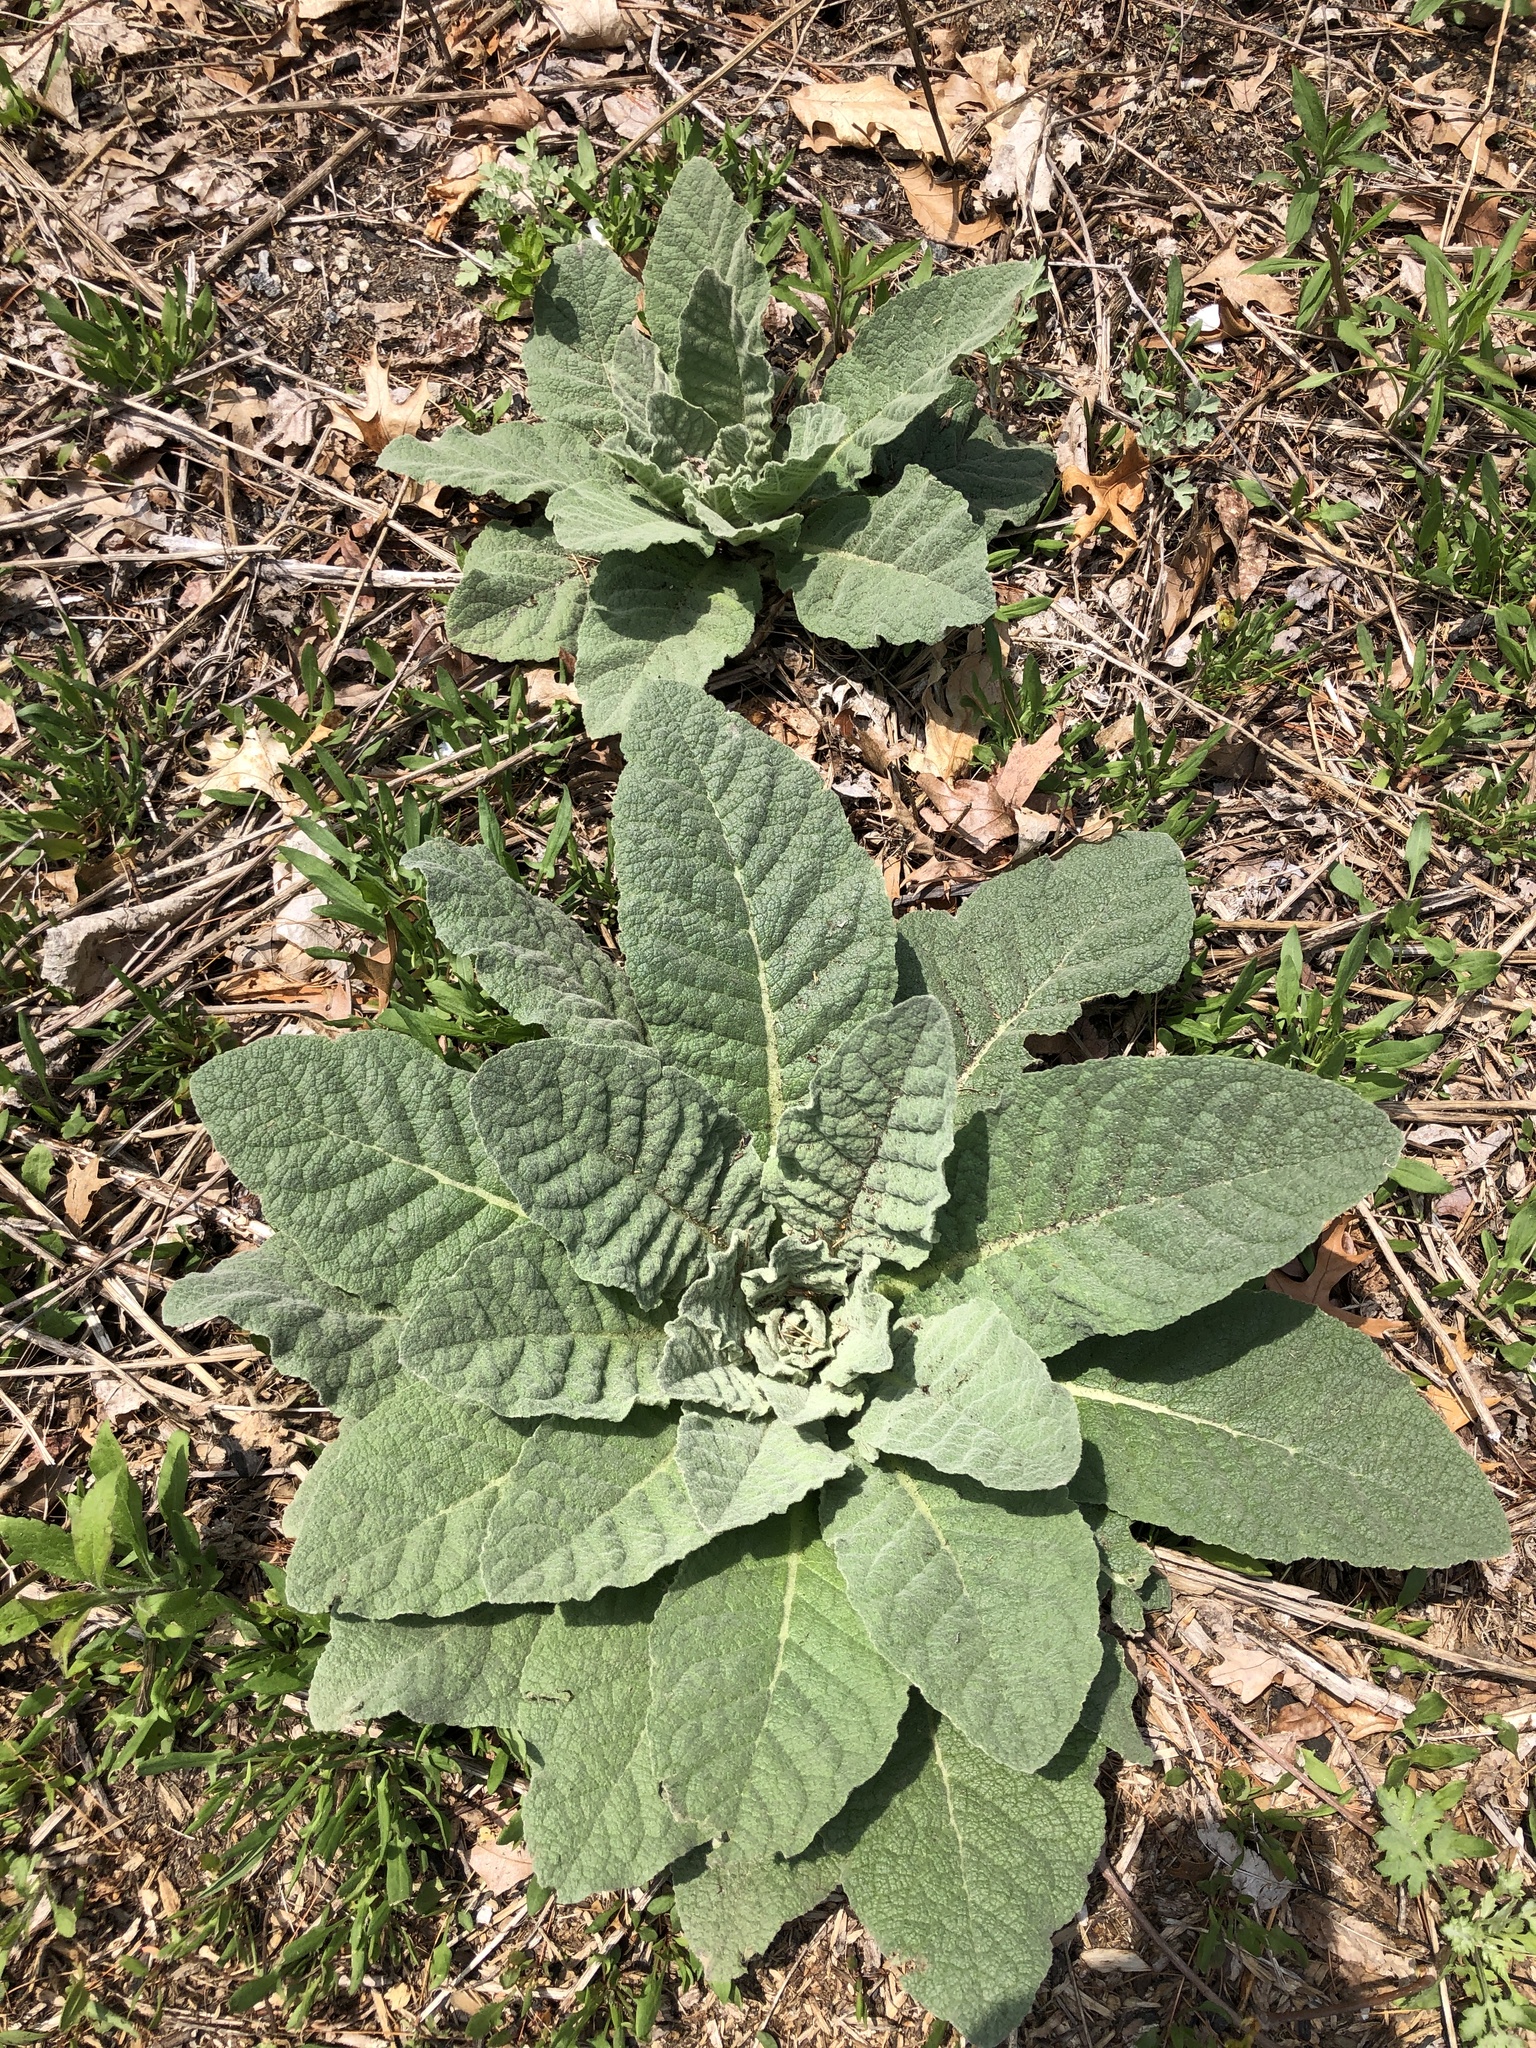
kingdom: Plantae
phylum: Tracheophyta
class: Magnoliopsida
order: Lamiales
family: Scrophulariaceae
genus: Verbascum
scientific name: Verbascum thapsus
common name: Common mullein
